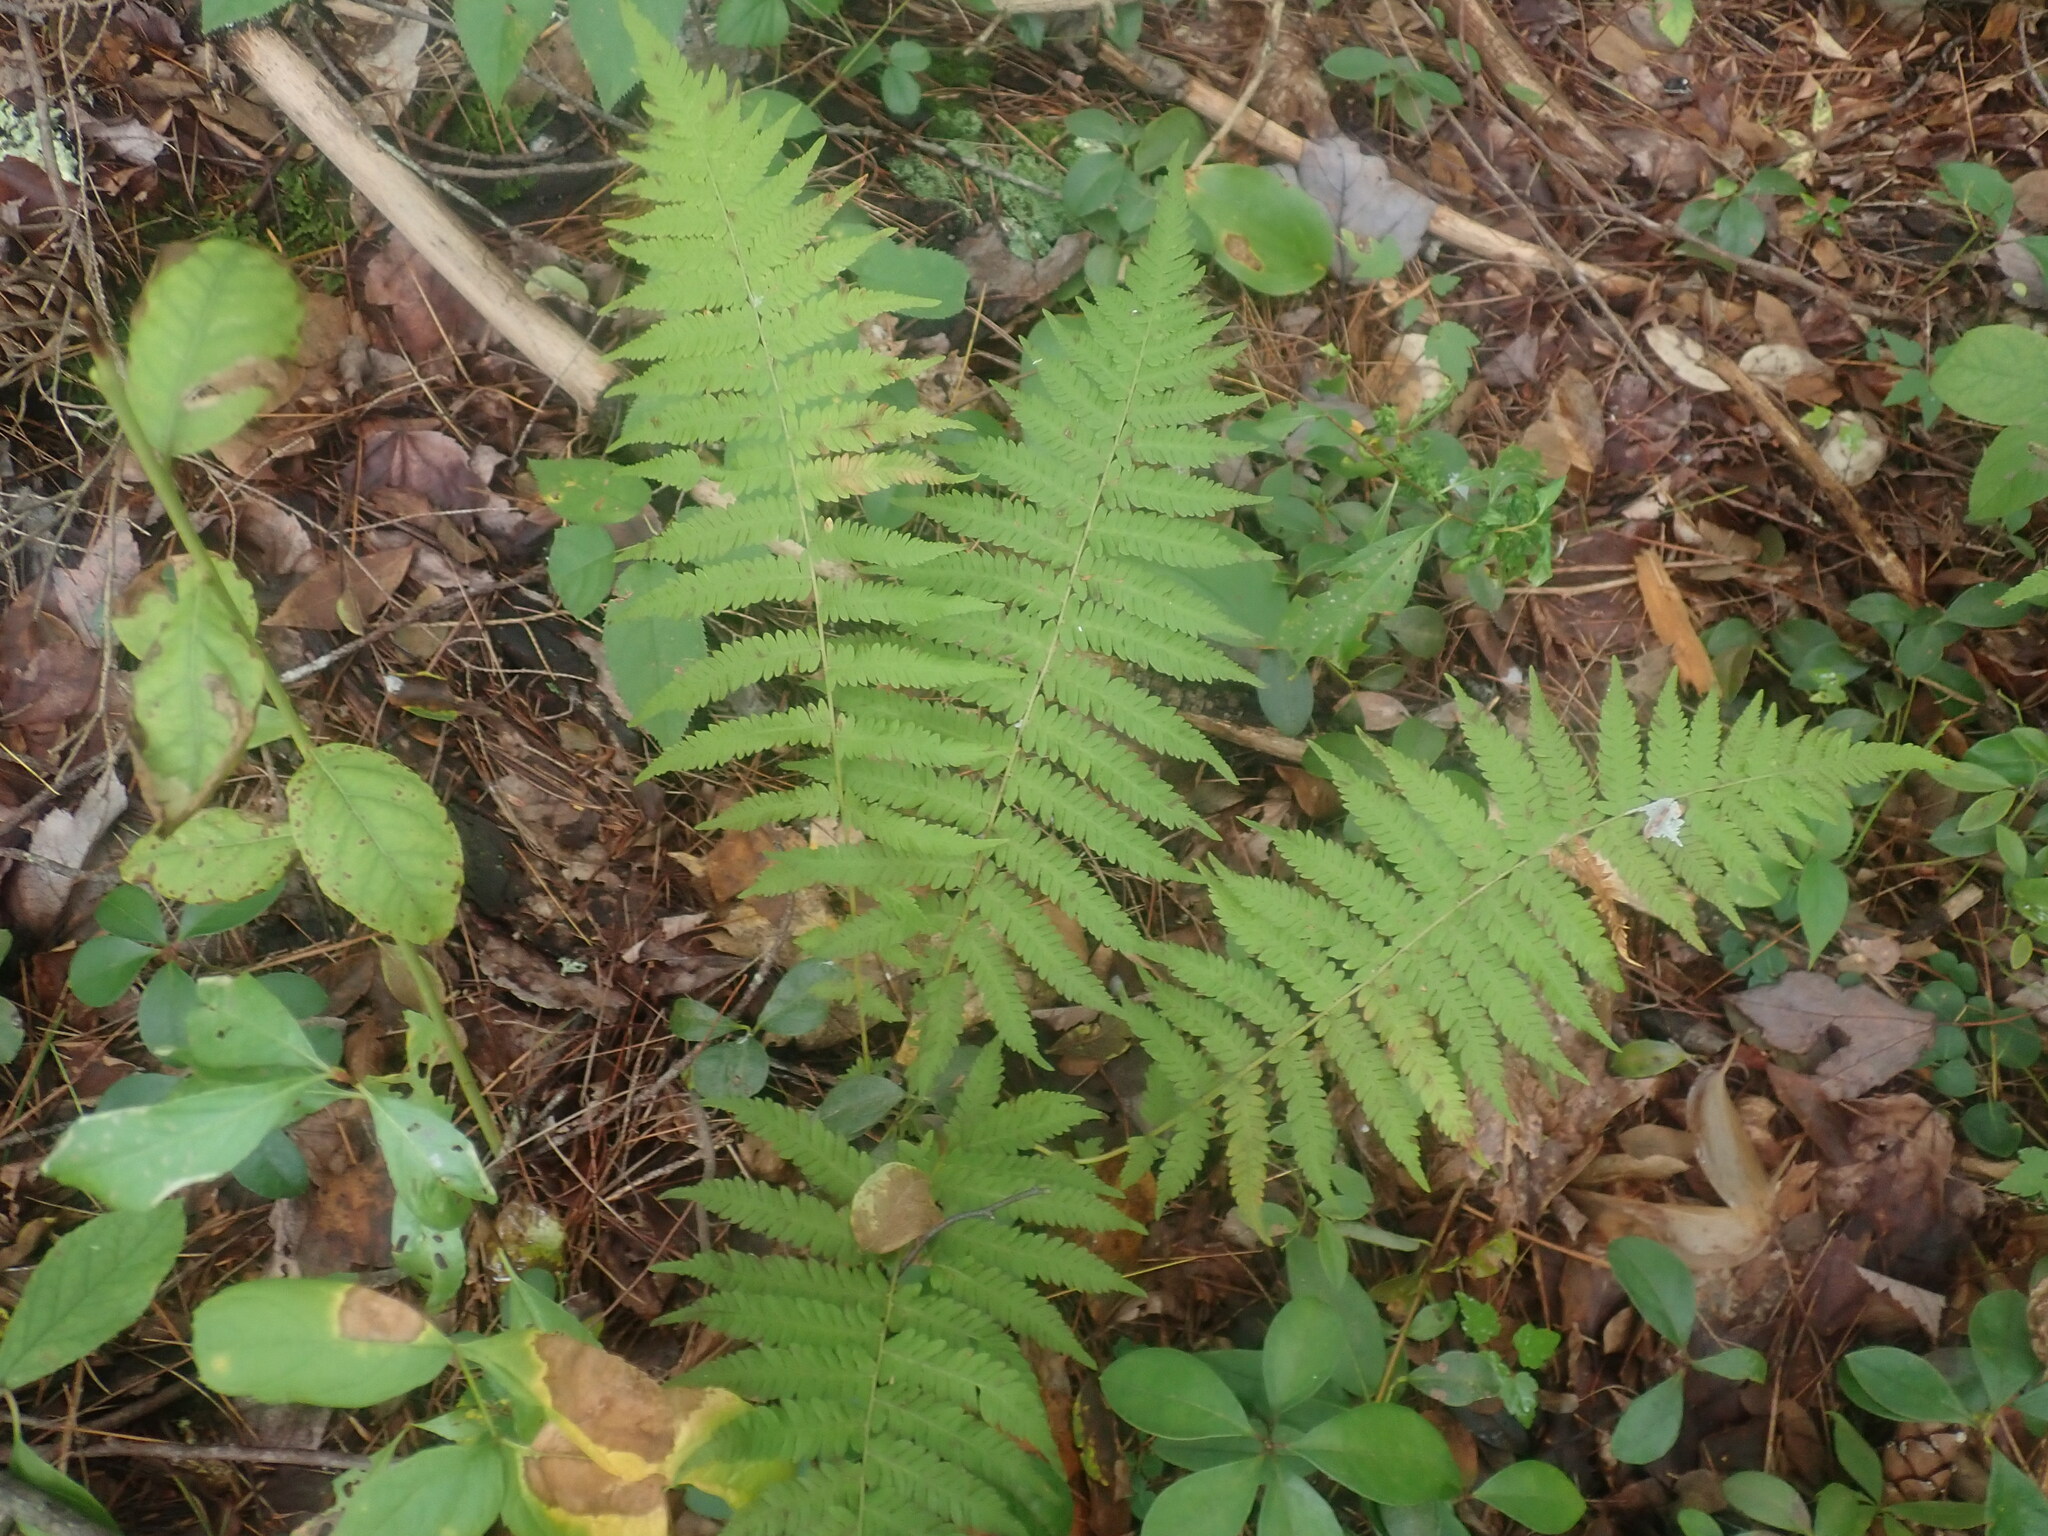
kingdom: Plantae
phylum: Tracheophyta
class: Polypodiopsida
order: Polypodiales
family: Thelypteridaceae
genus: Amauropelta
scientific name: Amauropelta noveboracensis
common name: New york fern
